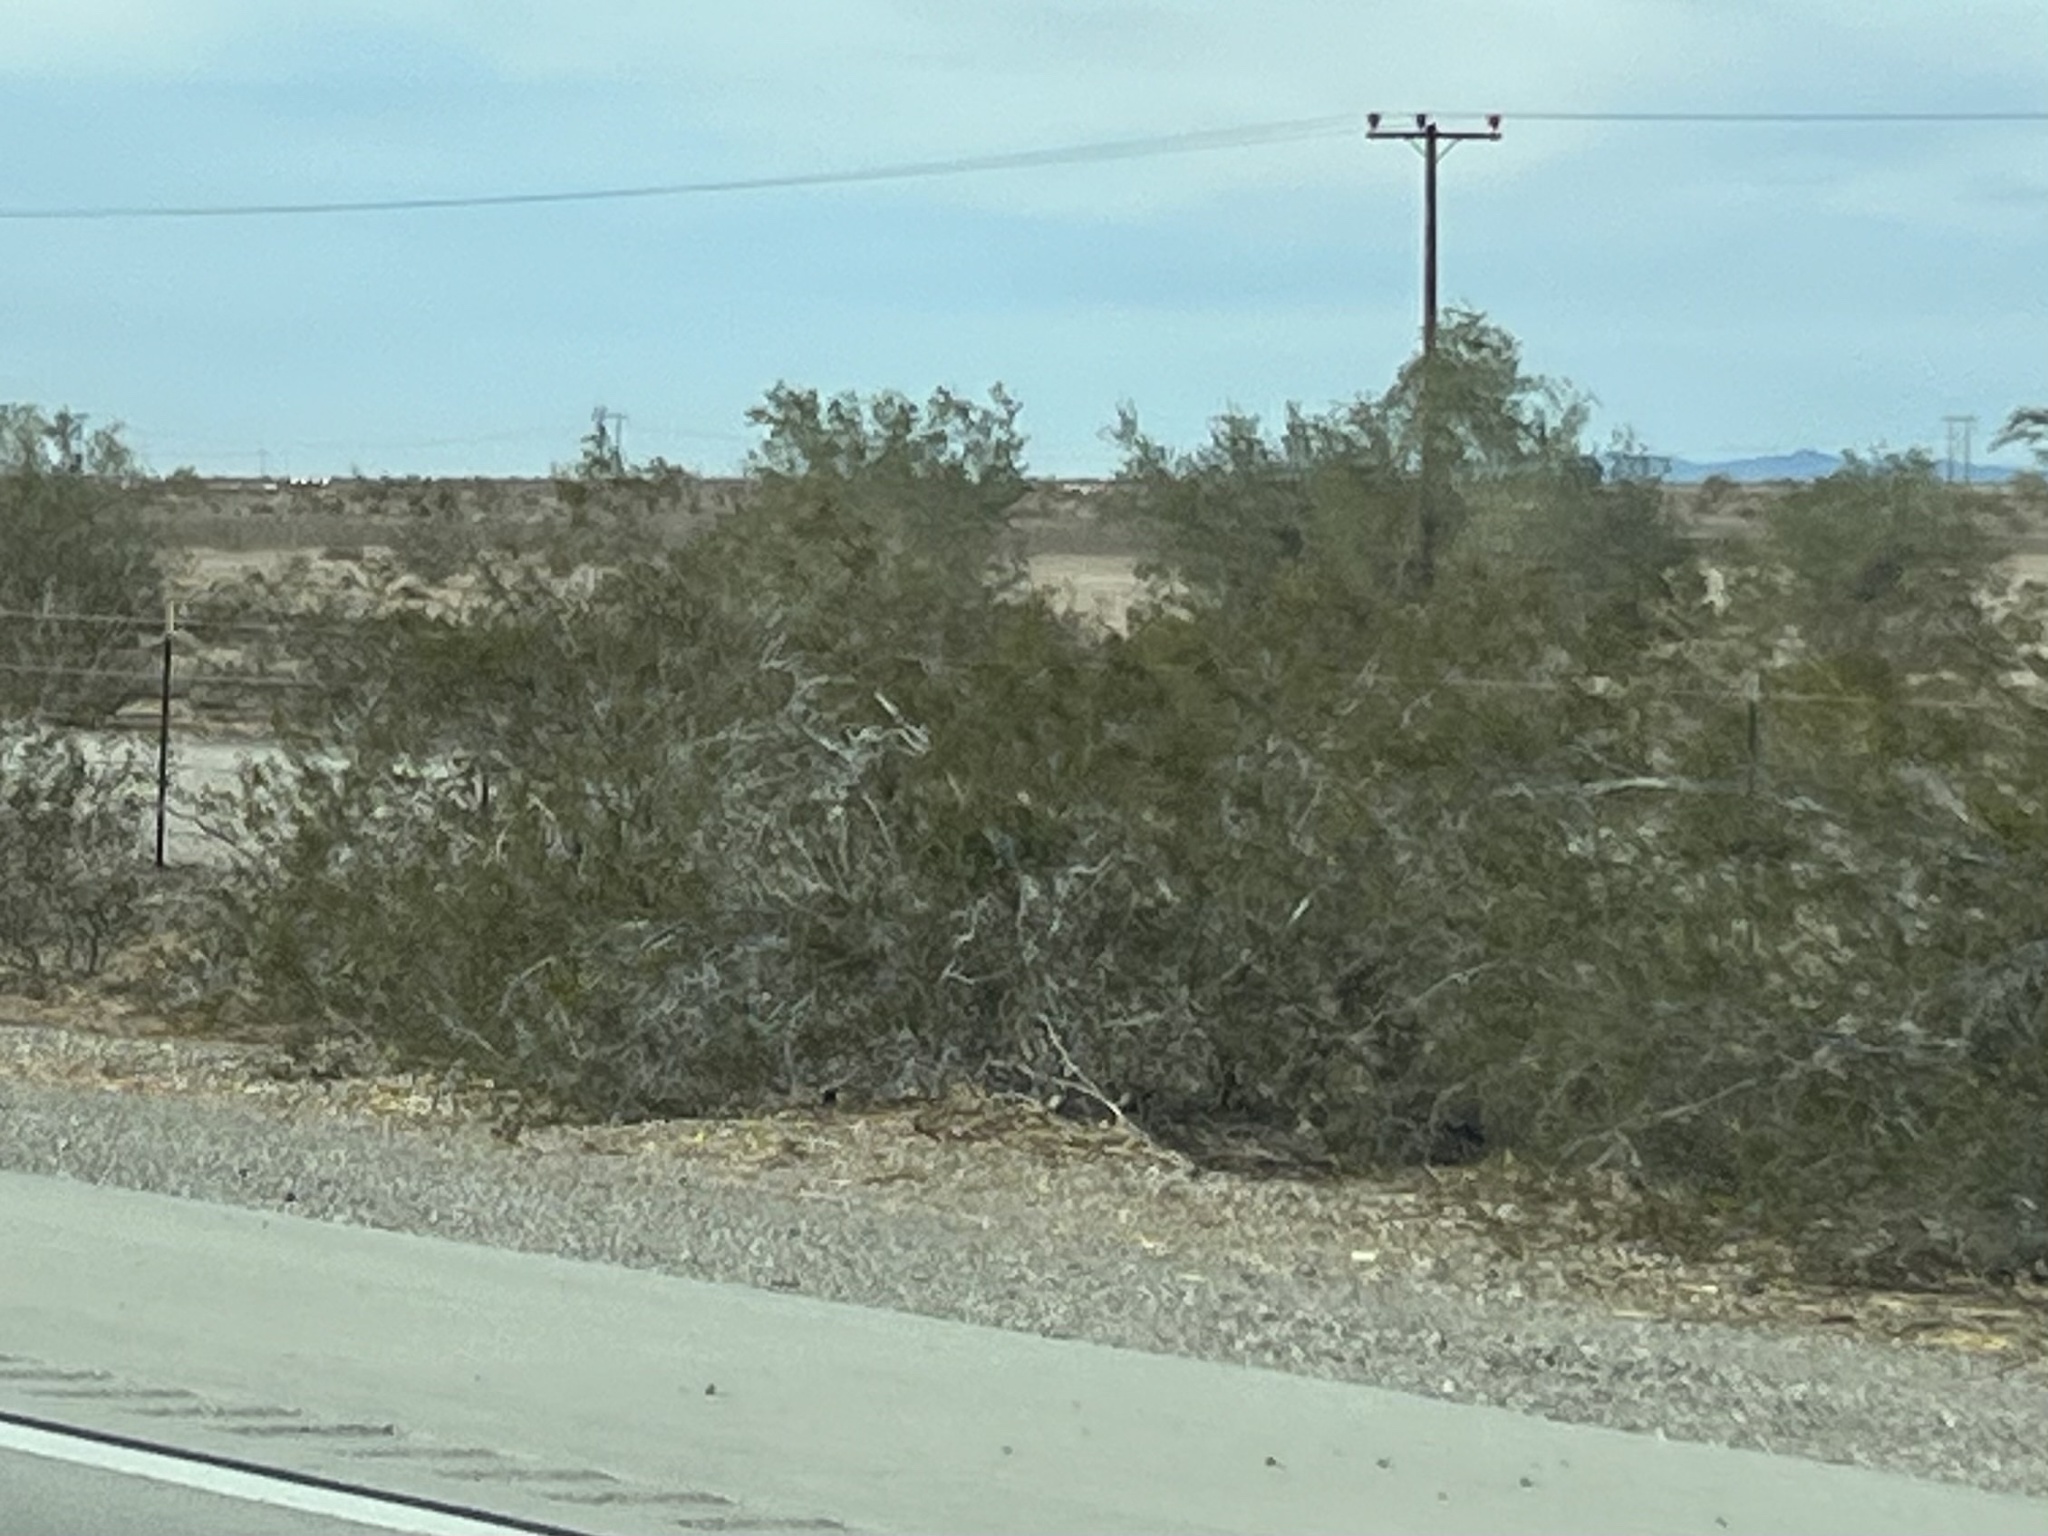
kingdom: Plantae
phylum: Tracheophyta
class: Magnoliopsida
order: Zygophyllales
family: Zygophyllaceae
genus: Larrea
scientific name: Larrea tridentata
